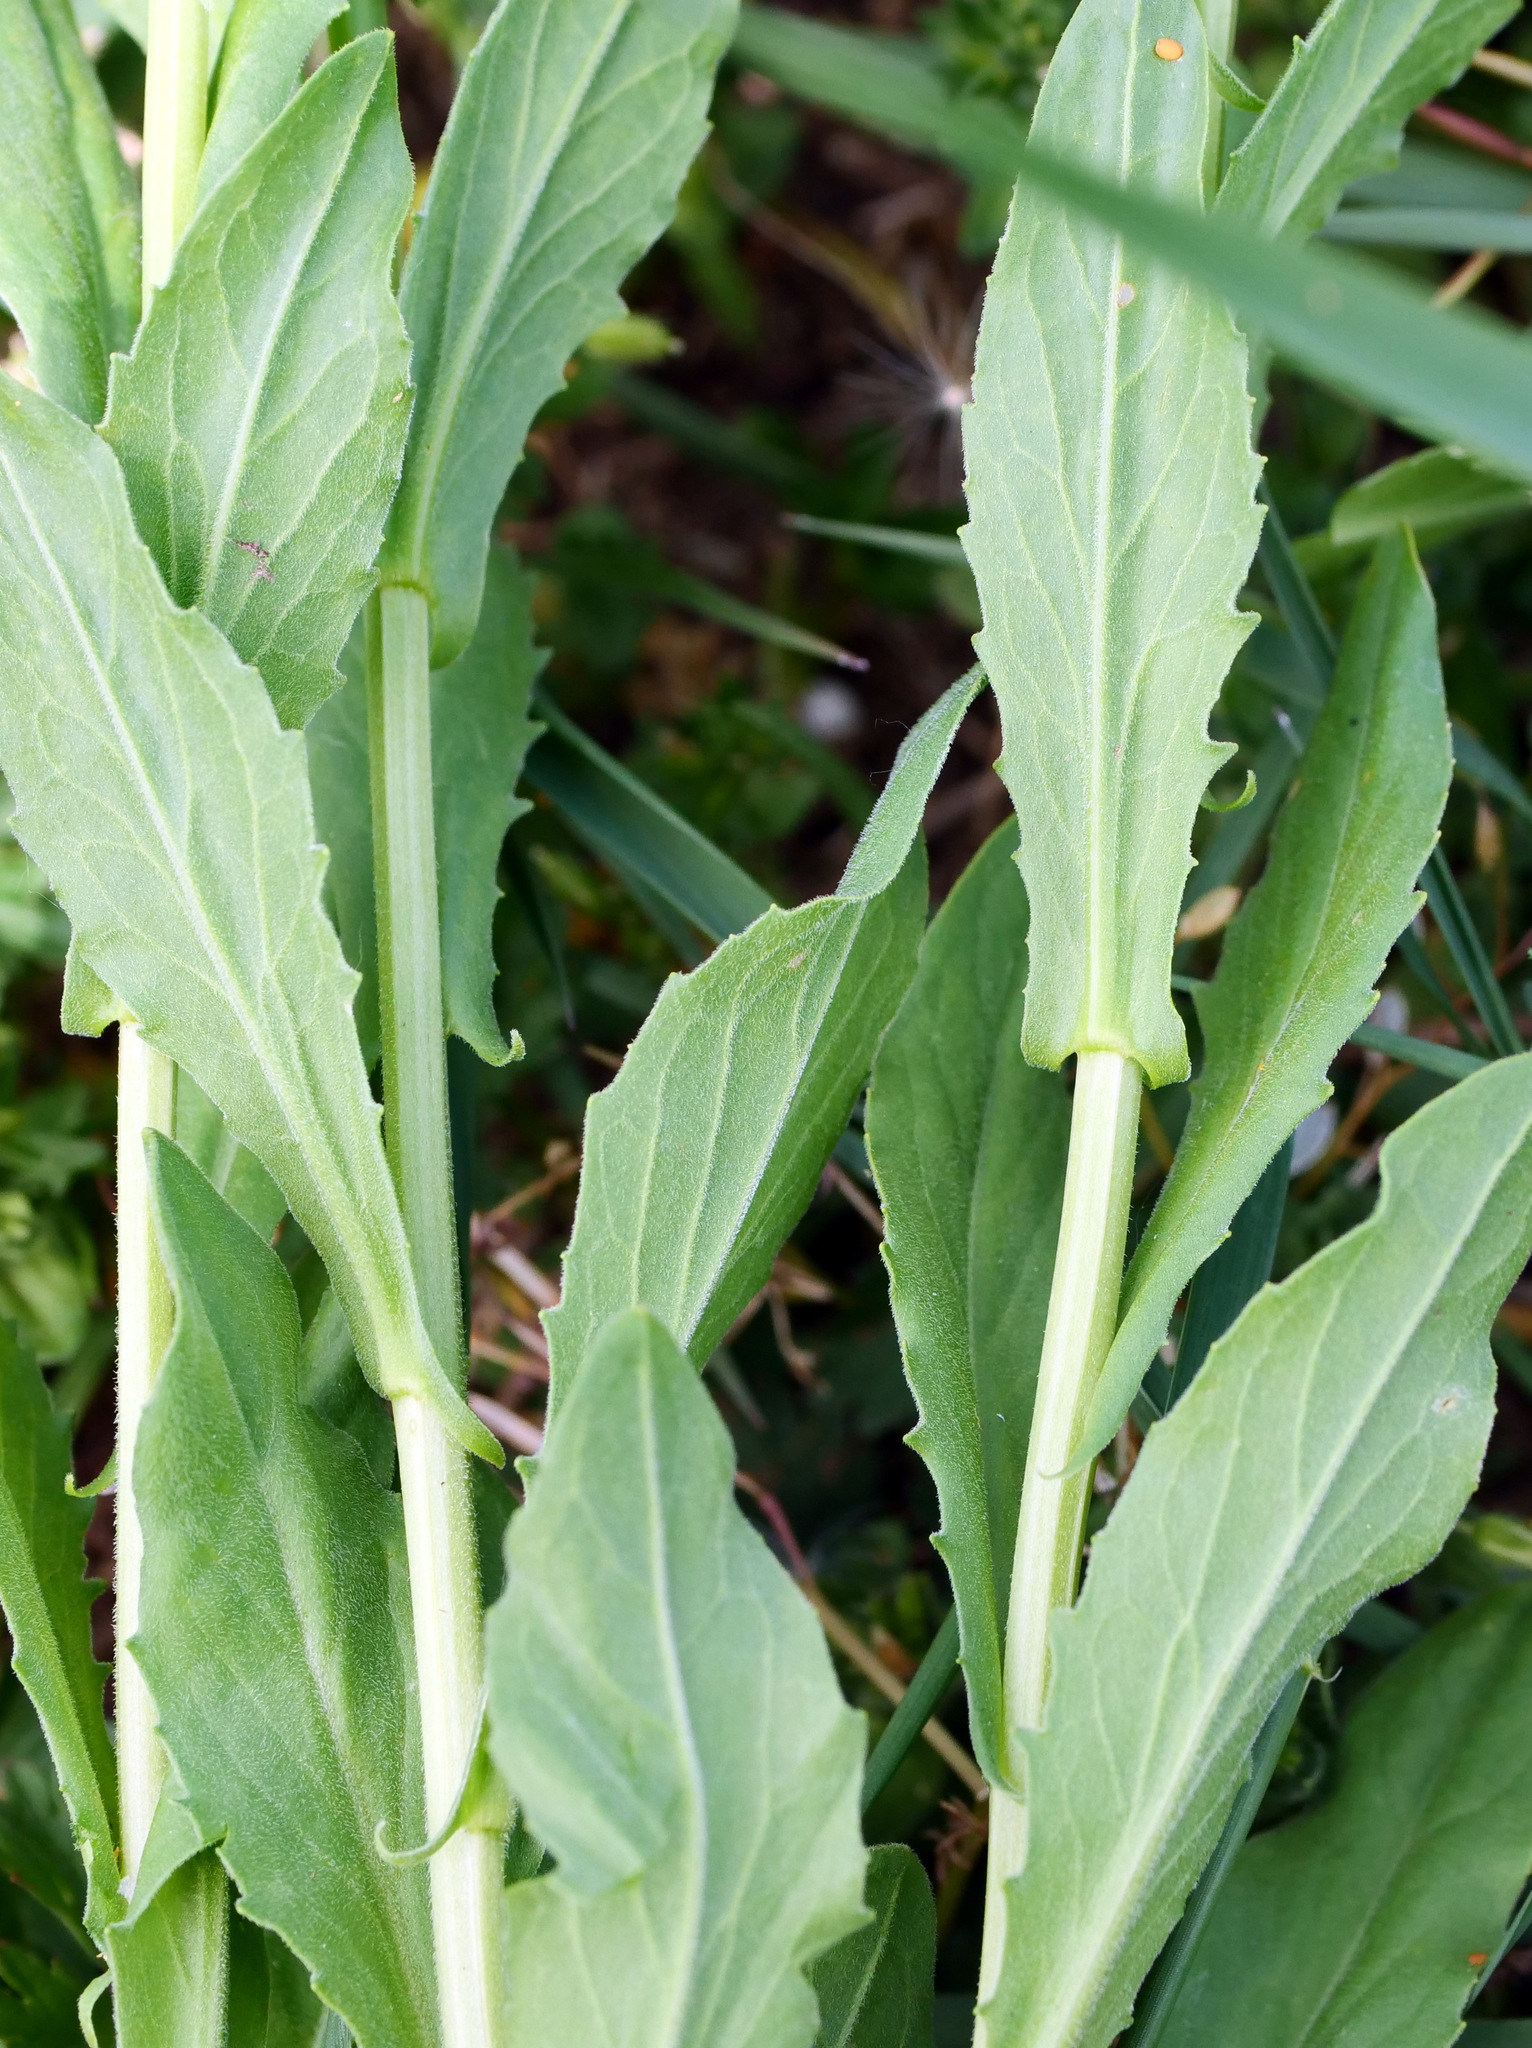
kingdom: Plantae
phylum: Tracheophyta
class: Magnoliopsida
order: Brassicales
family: Brassicaceae
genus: Lepidium
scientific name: Lepidium draba
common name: Hoary cress
